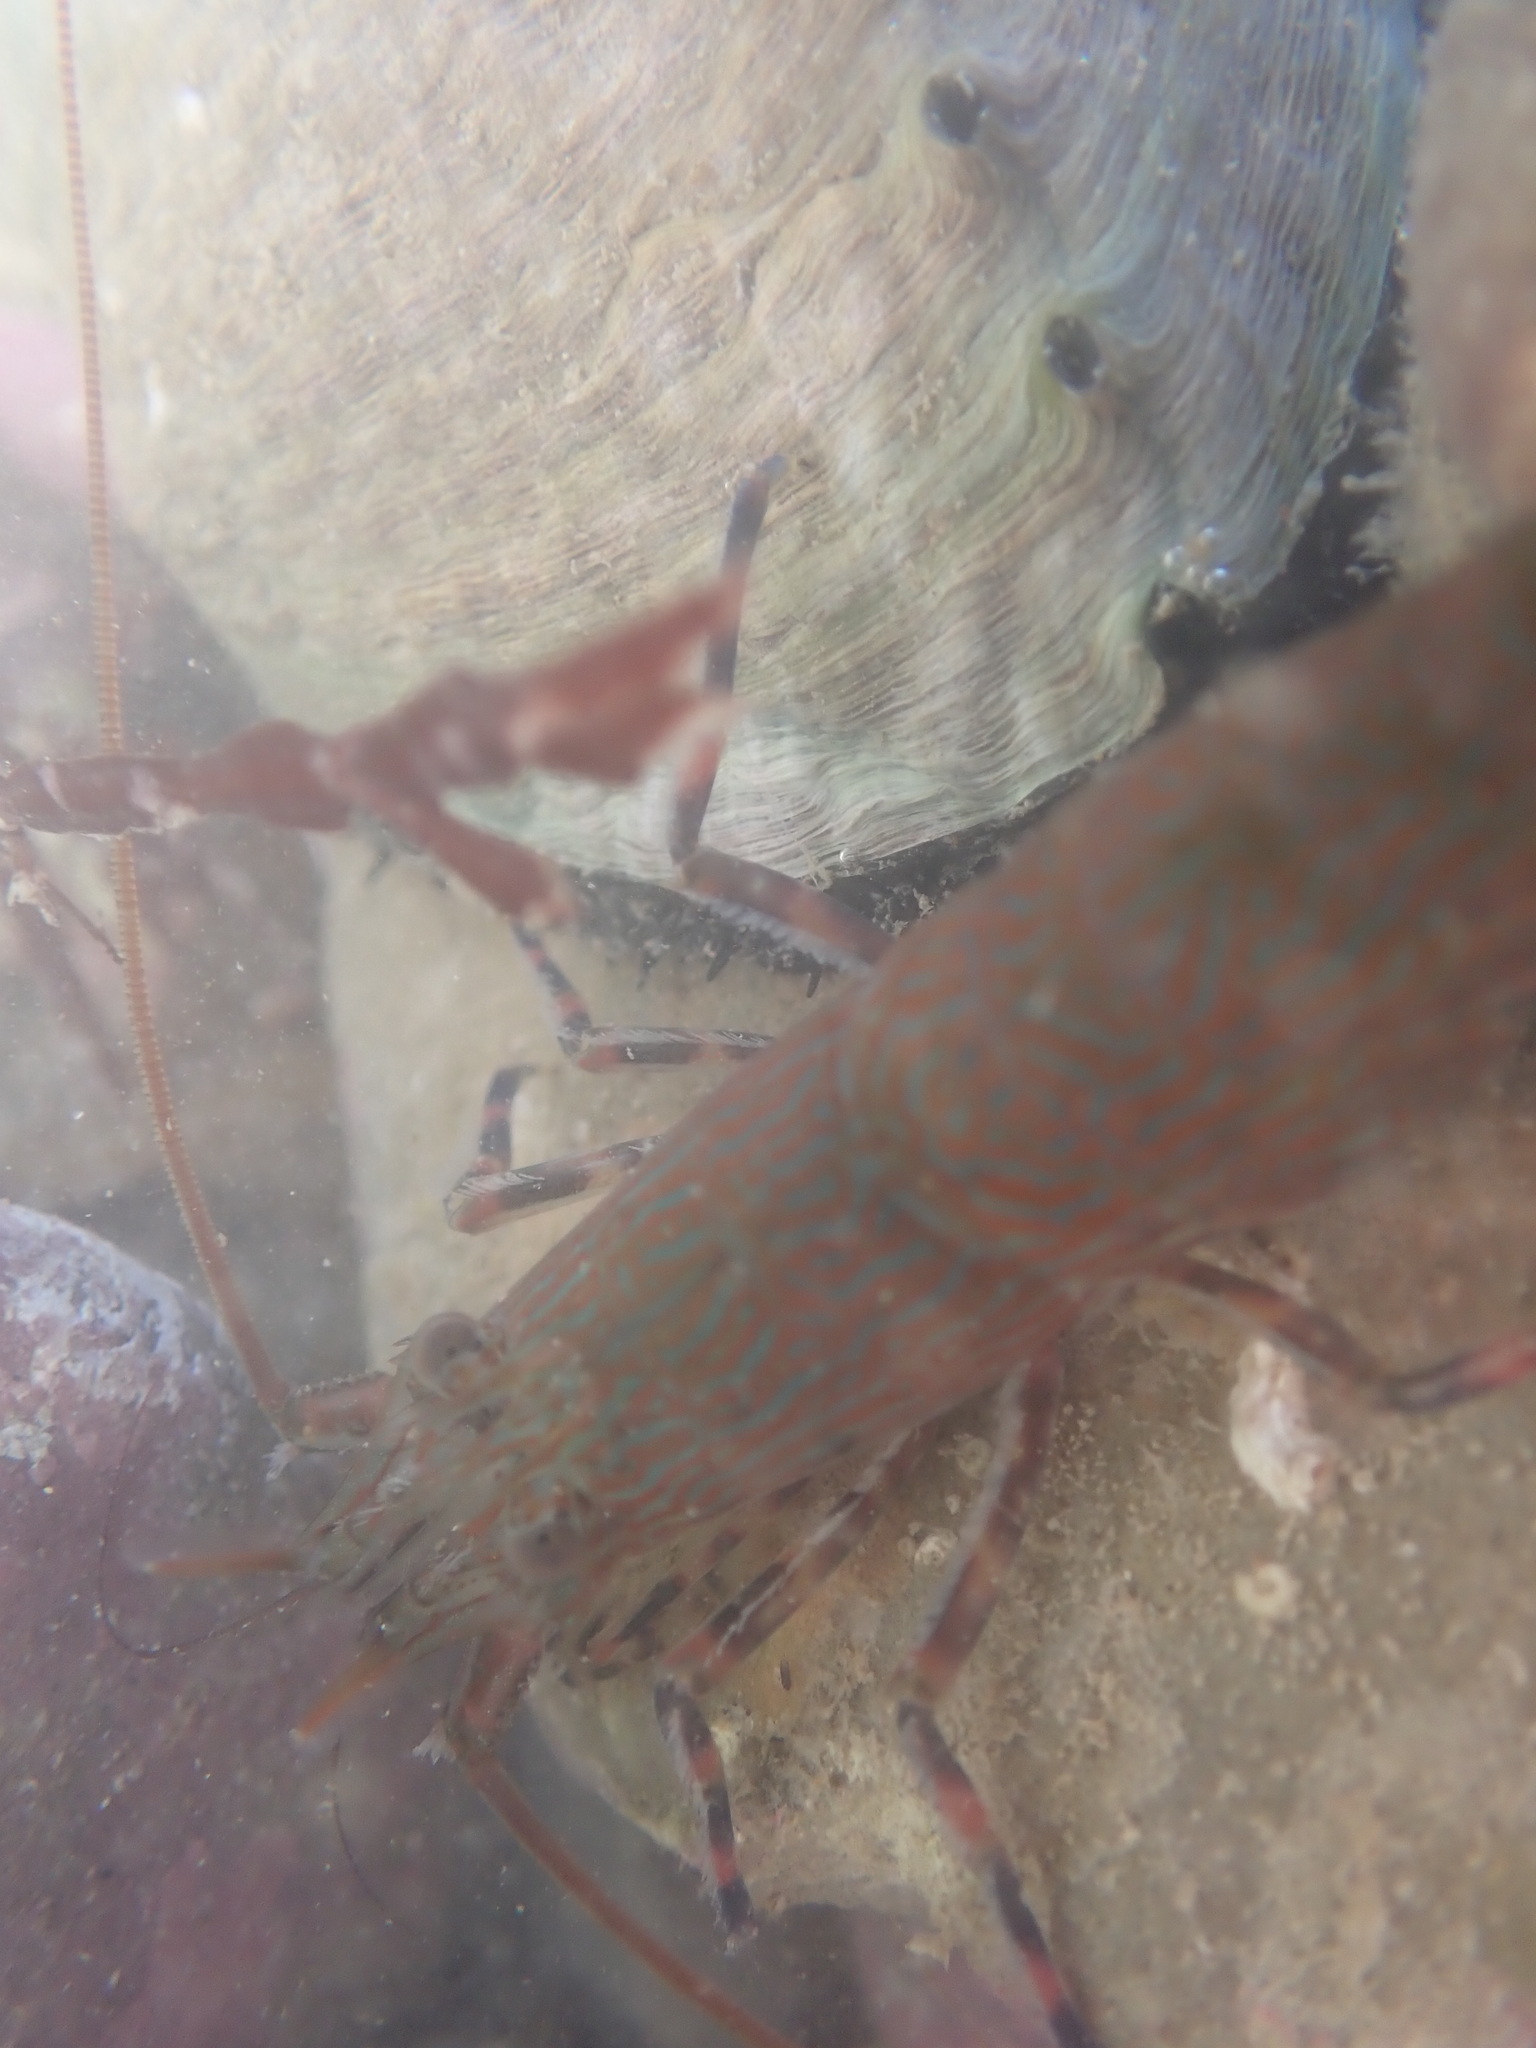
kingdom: Animalia
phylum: Arthropoda
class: Malacostraca
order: Decapoda
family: Hippolytidae
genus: Alope
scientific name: Alope spinifrons
